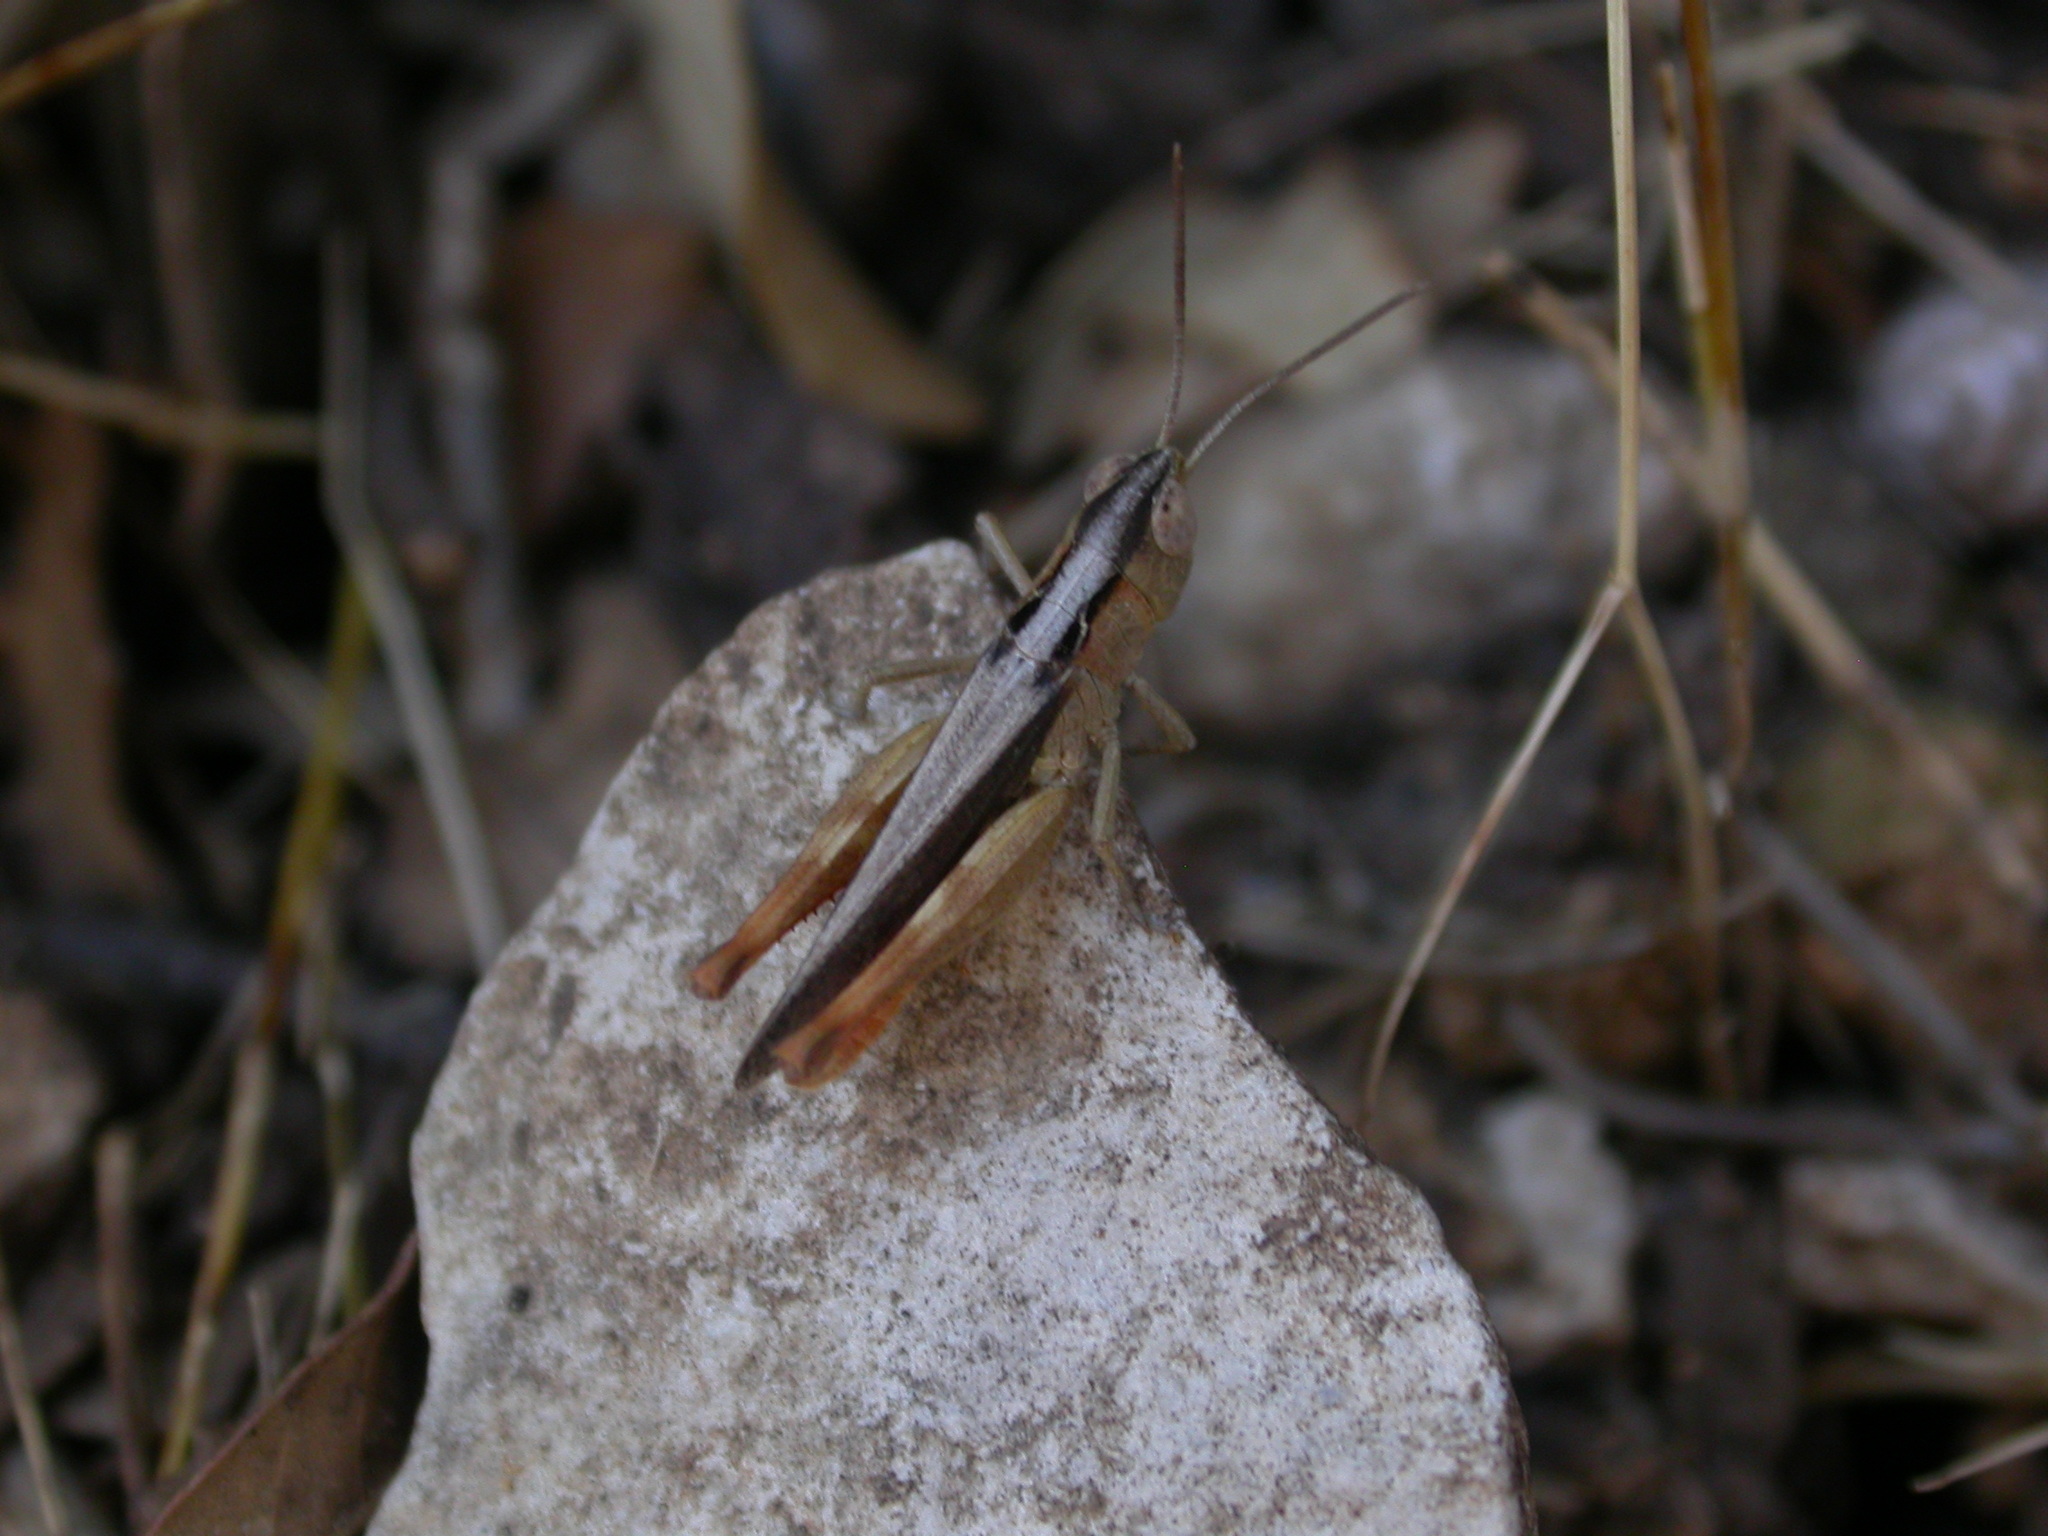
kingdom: Animalia
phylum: Arthropoda
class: Insecta
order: Orthoptera
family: Acrididae
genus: Chorthippus
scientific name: Chorthippus vagans
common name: Heath grasshopper
